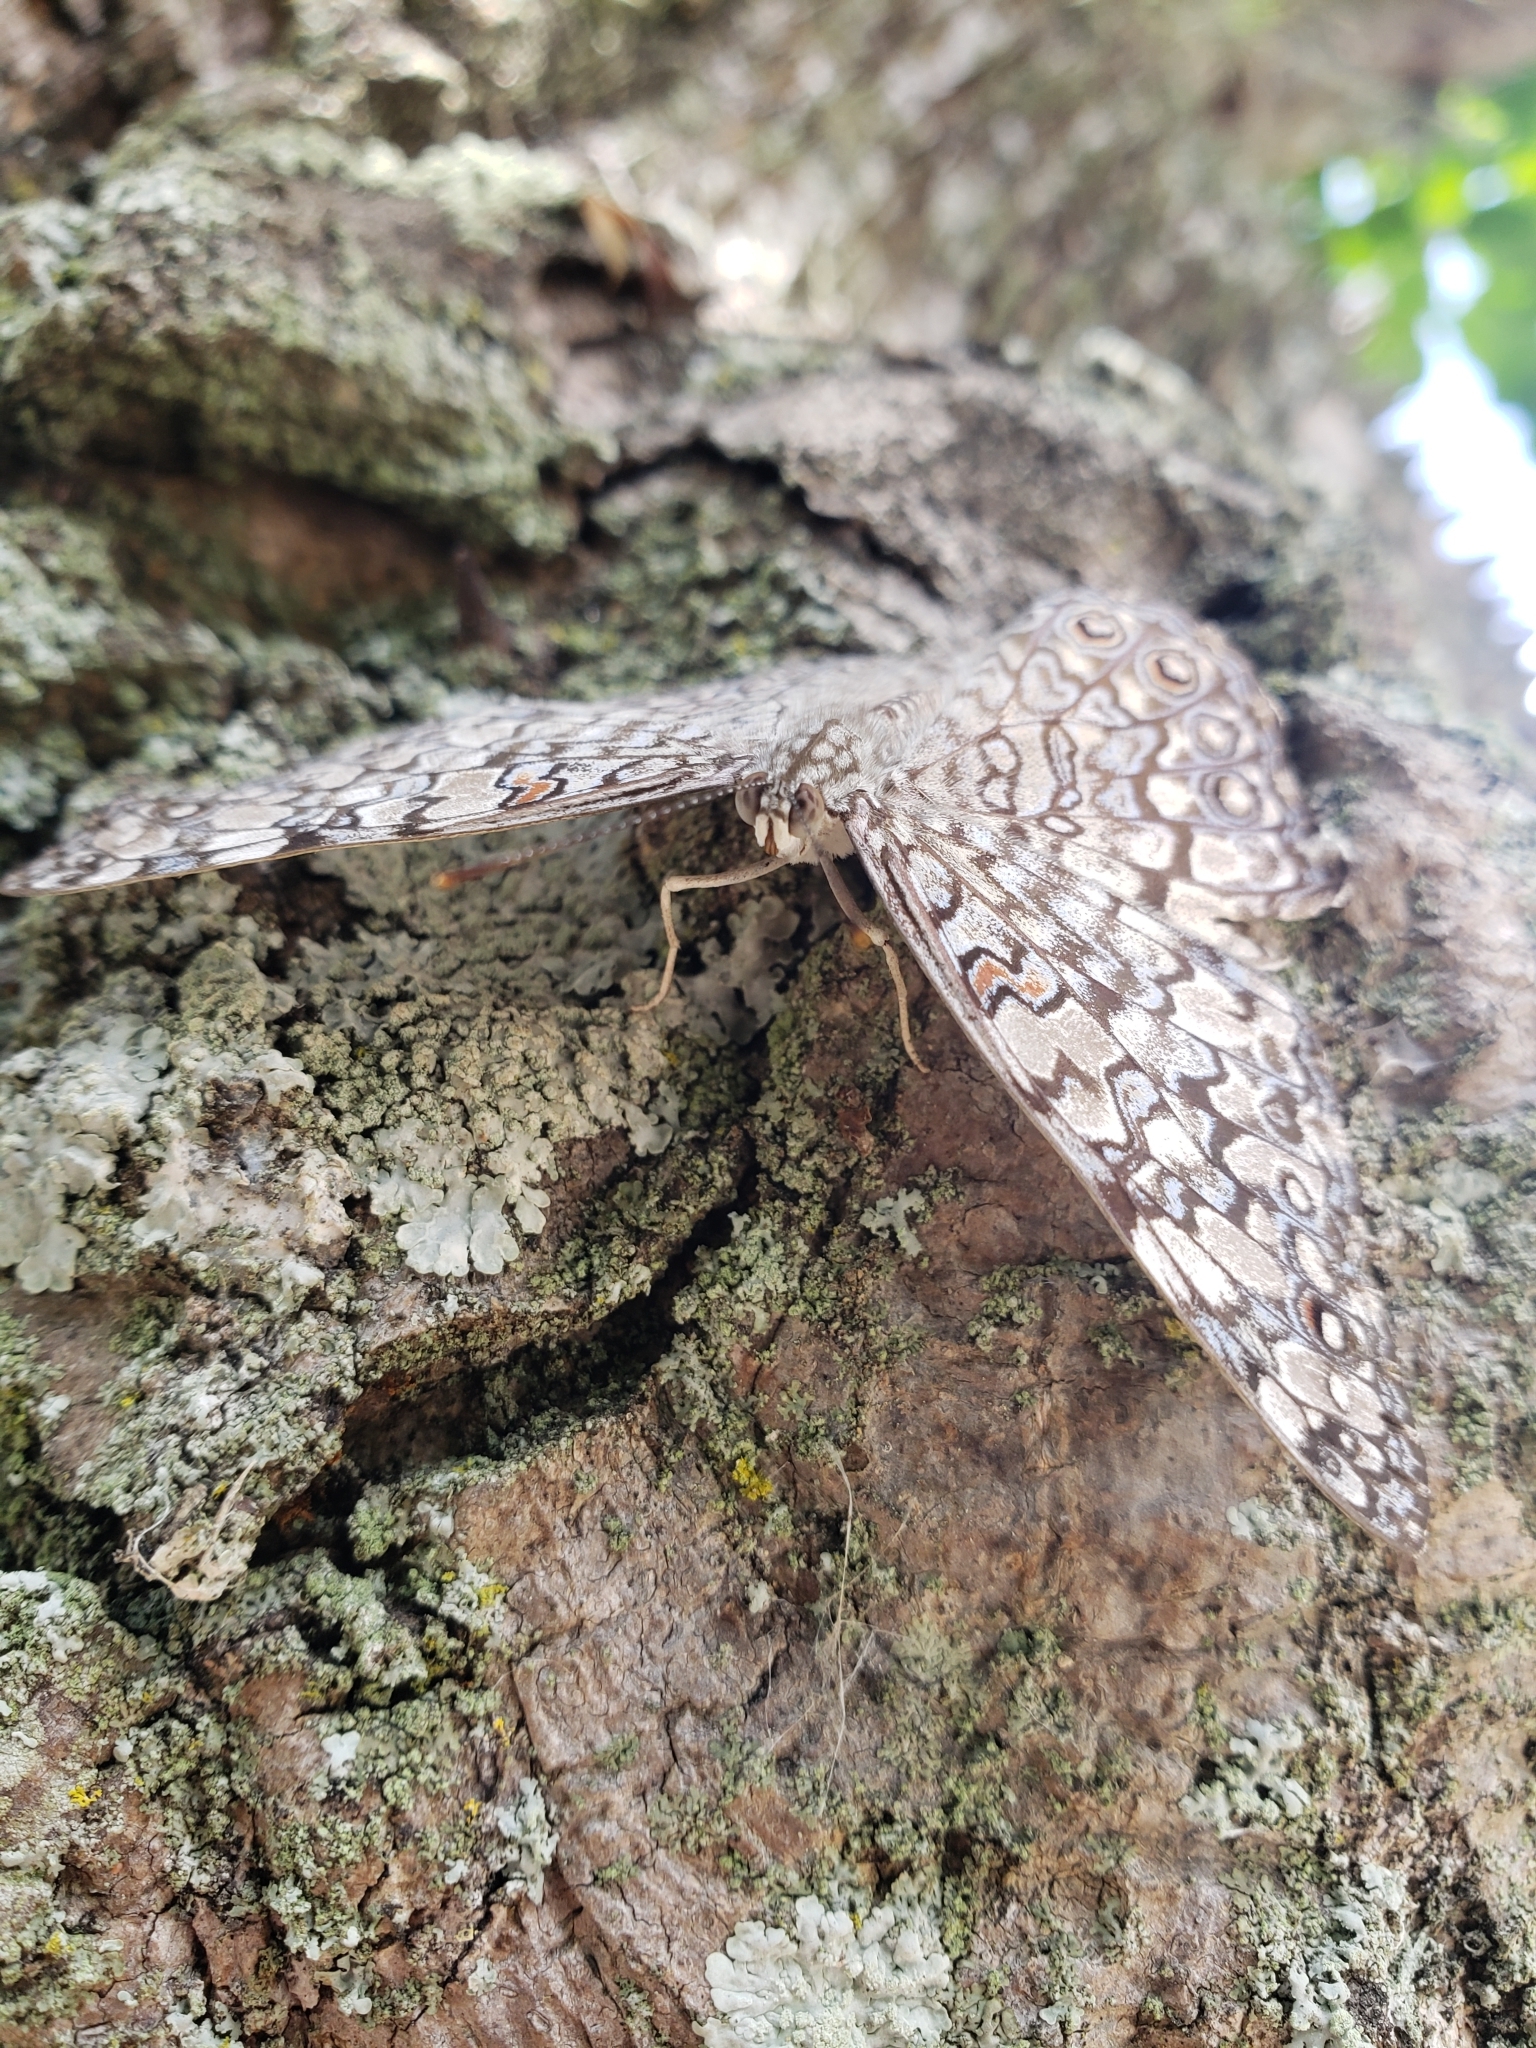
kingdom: Animalia
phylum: Arthropoda
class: Insecta
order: Lepidoptera
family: Nymphalidae
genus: Hamadryas
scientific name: Hamadryas februa
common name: Gray cracker
